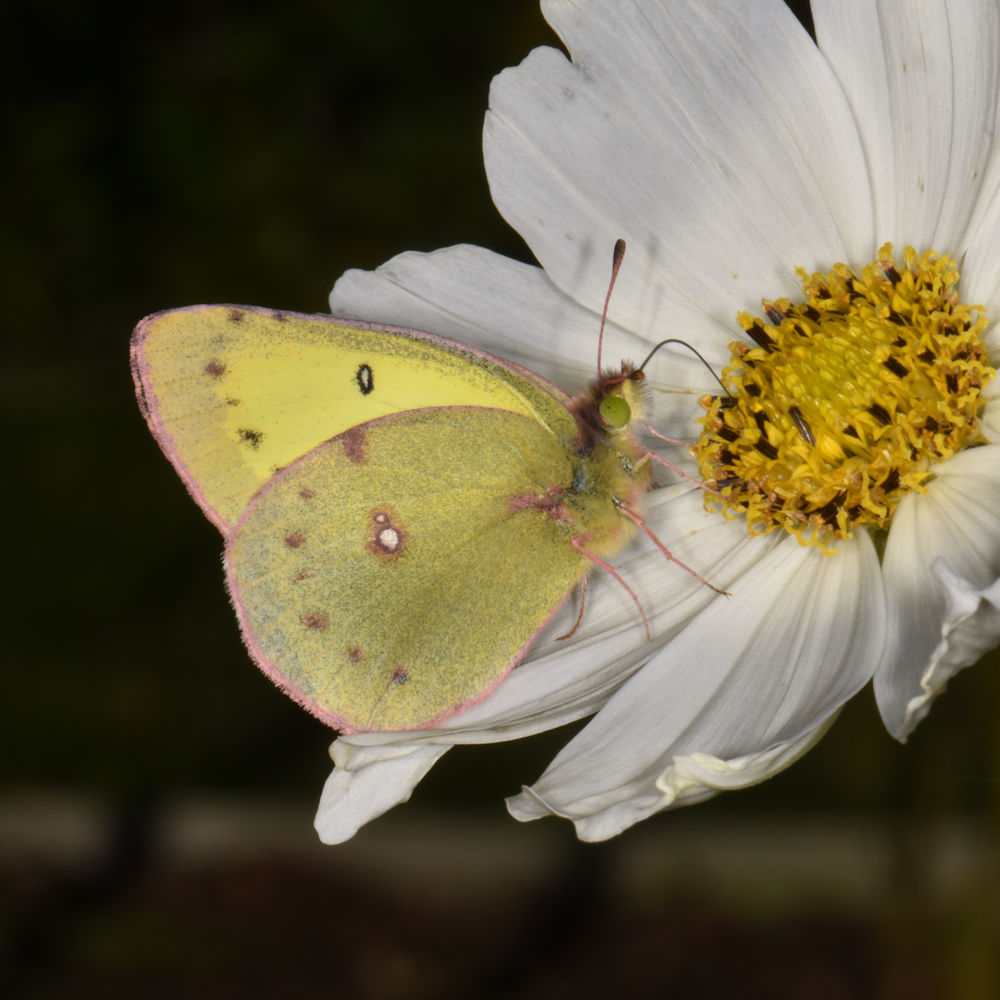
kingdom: Animalia
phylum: Arthropoda
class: Insecta
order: Lepidoptera
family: Pieridae
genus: Colias
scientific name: Colias philodice
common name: Clouded sulphur
